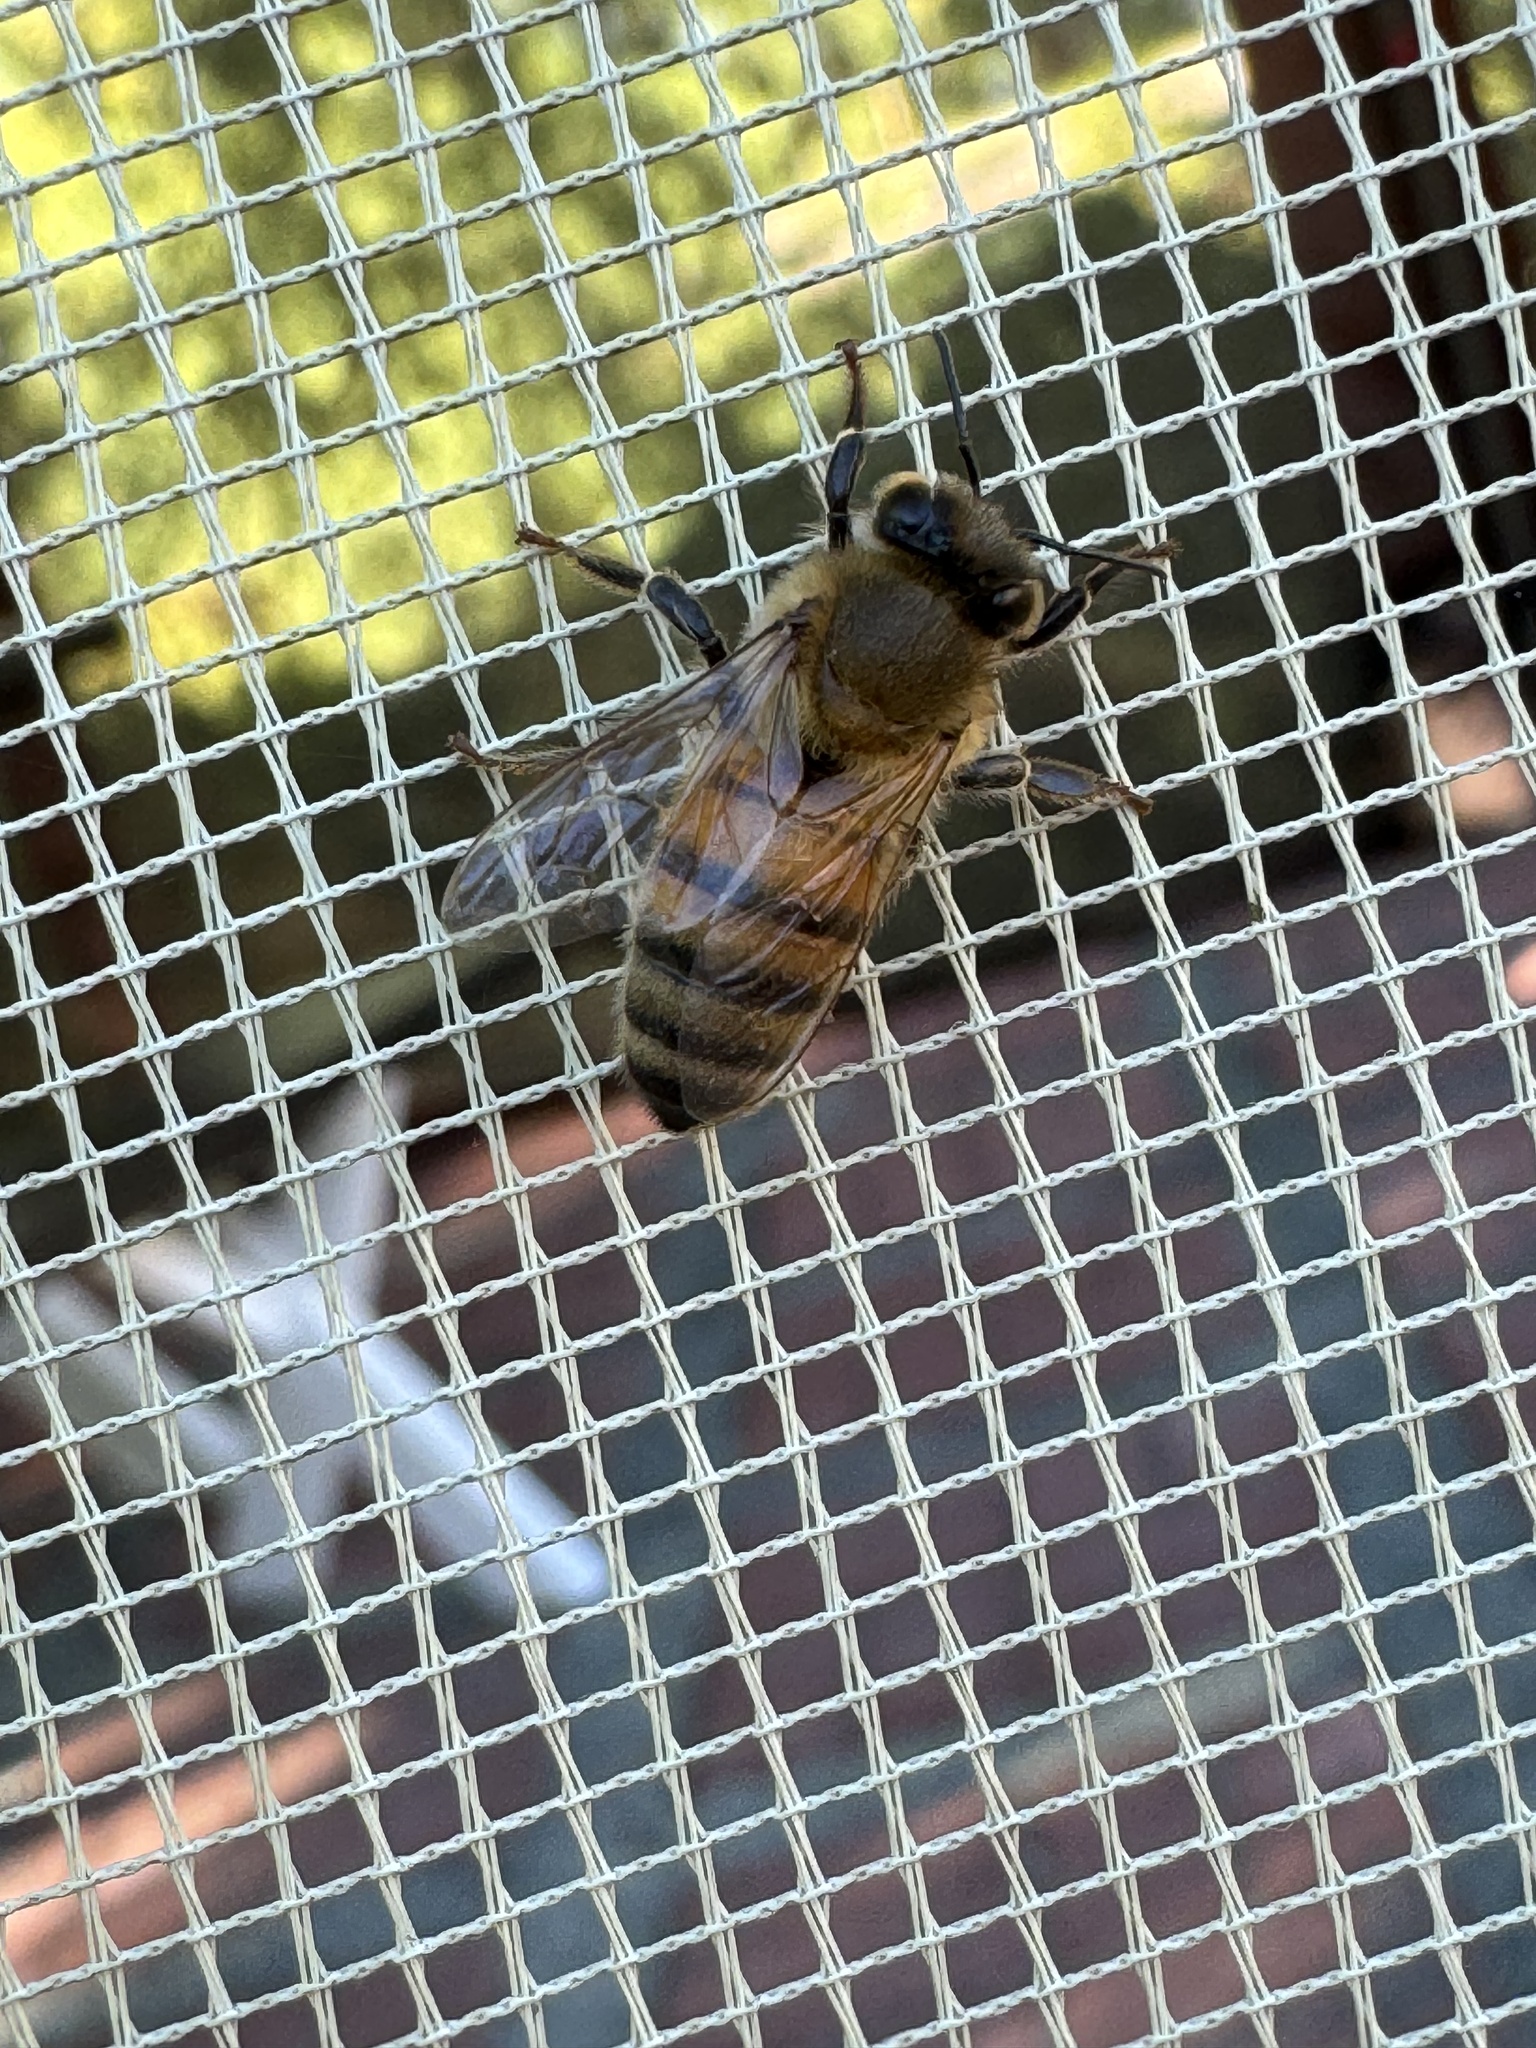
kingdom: Animalia
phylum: Arthropoda
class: Insecta
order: Hymenoptera
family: Apidae
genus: Apis
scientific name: Apis mellifera
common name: Honey bee
